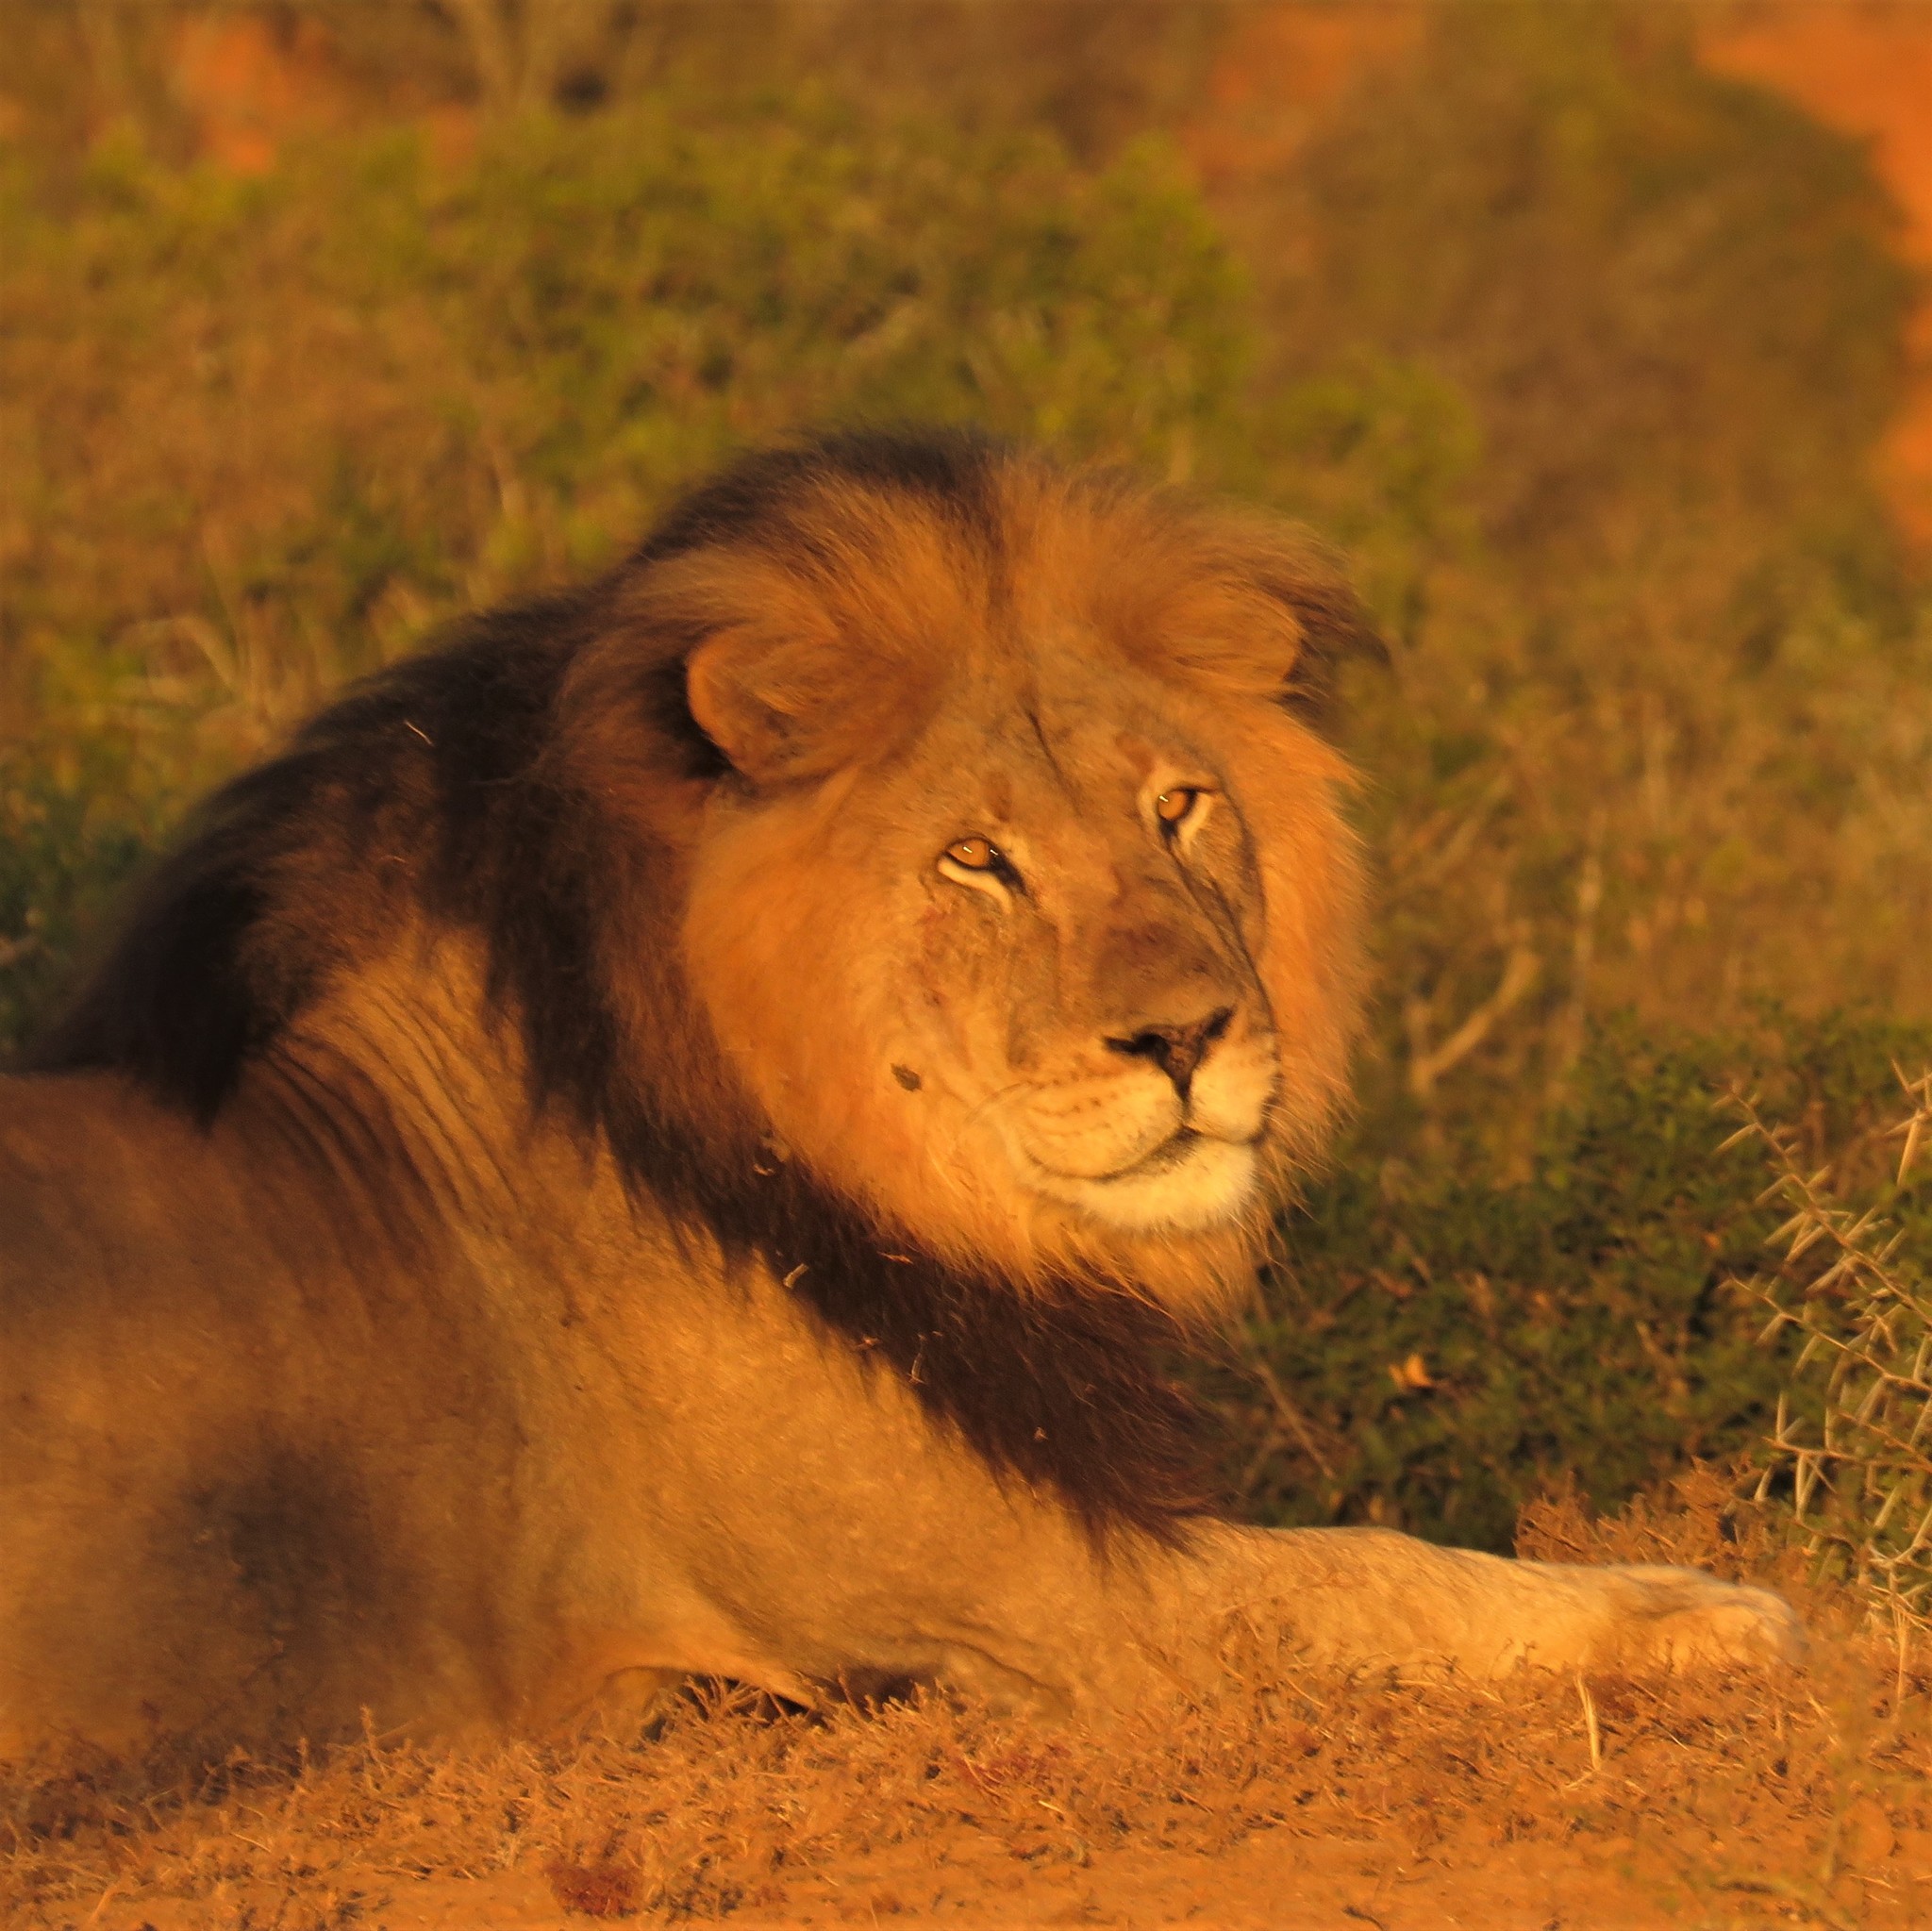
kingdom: Animalia
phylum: Chordata
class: Mammalia
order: Carnivora
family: Felidae
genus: Panthera
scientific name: Panthera leo
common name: Lion
